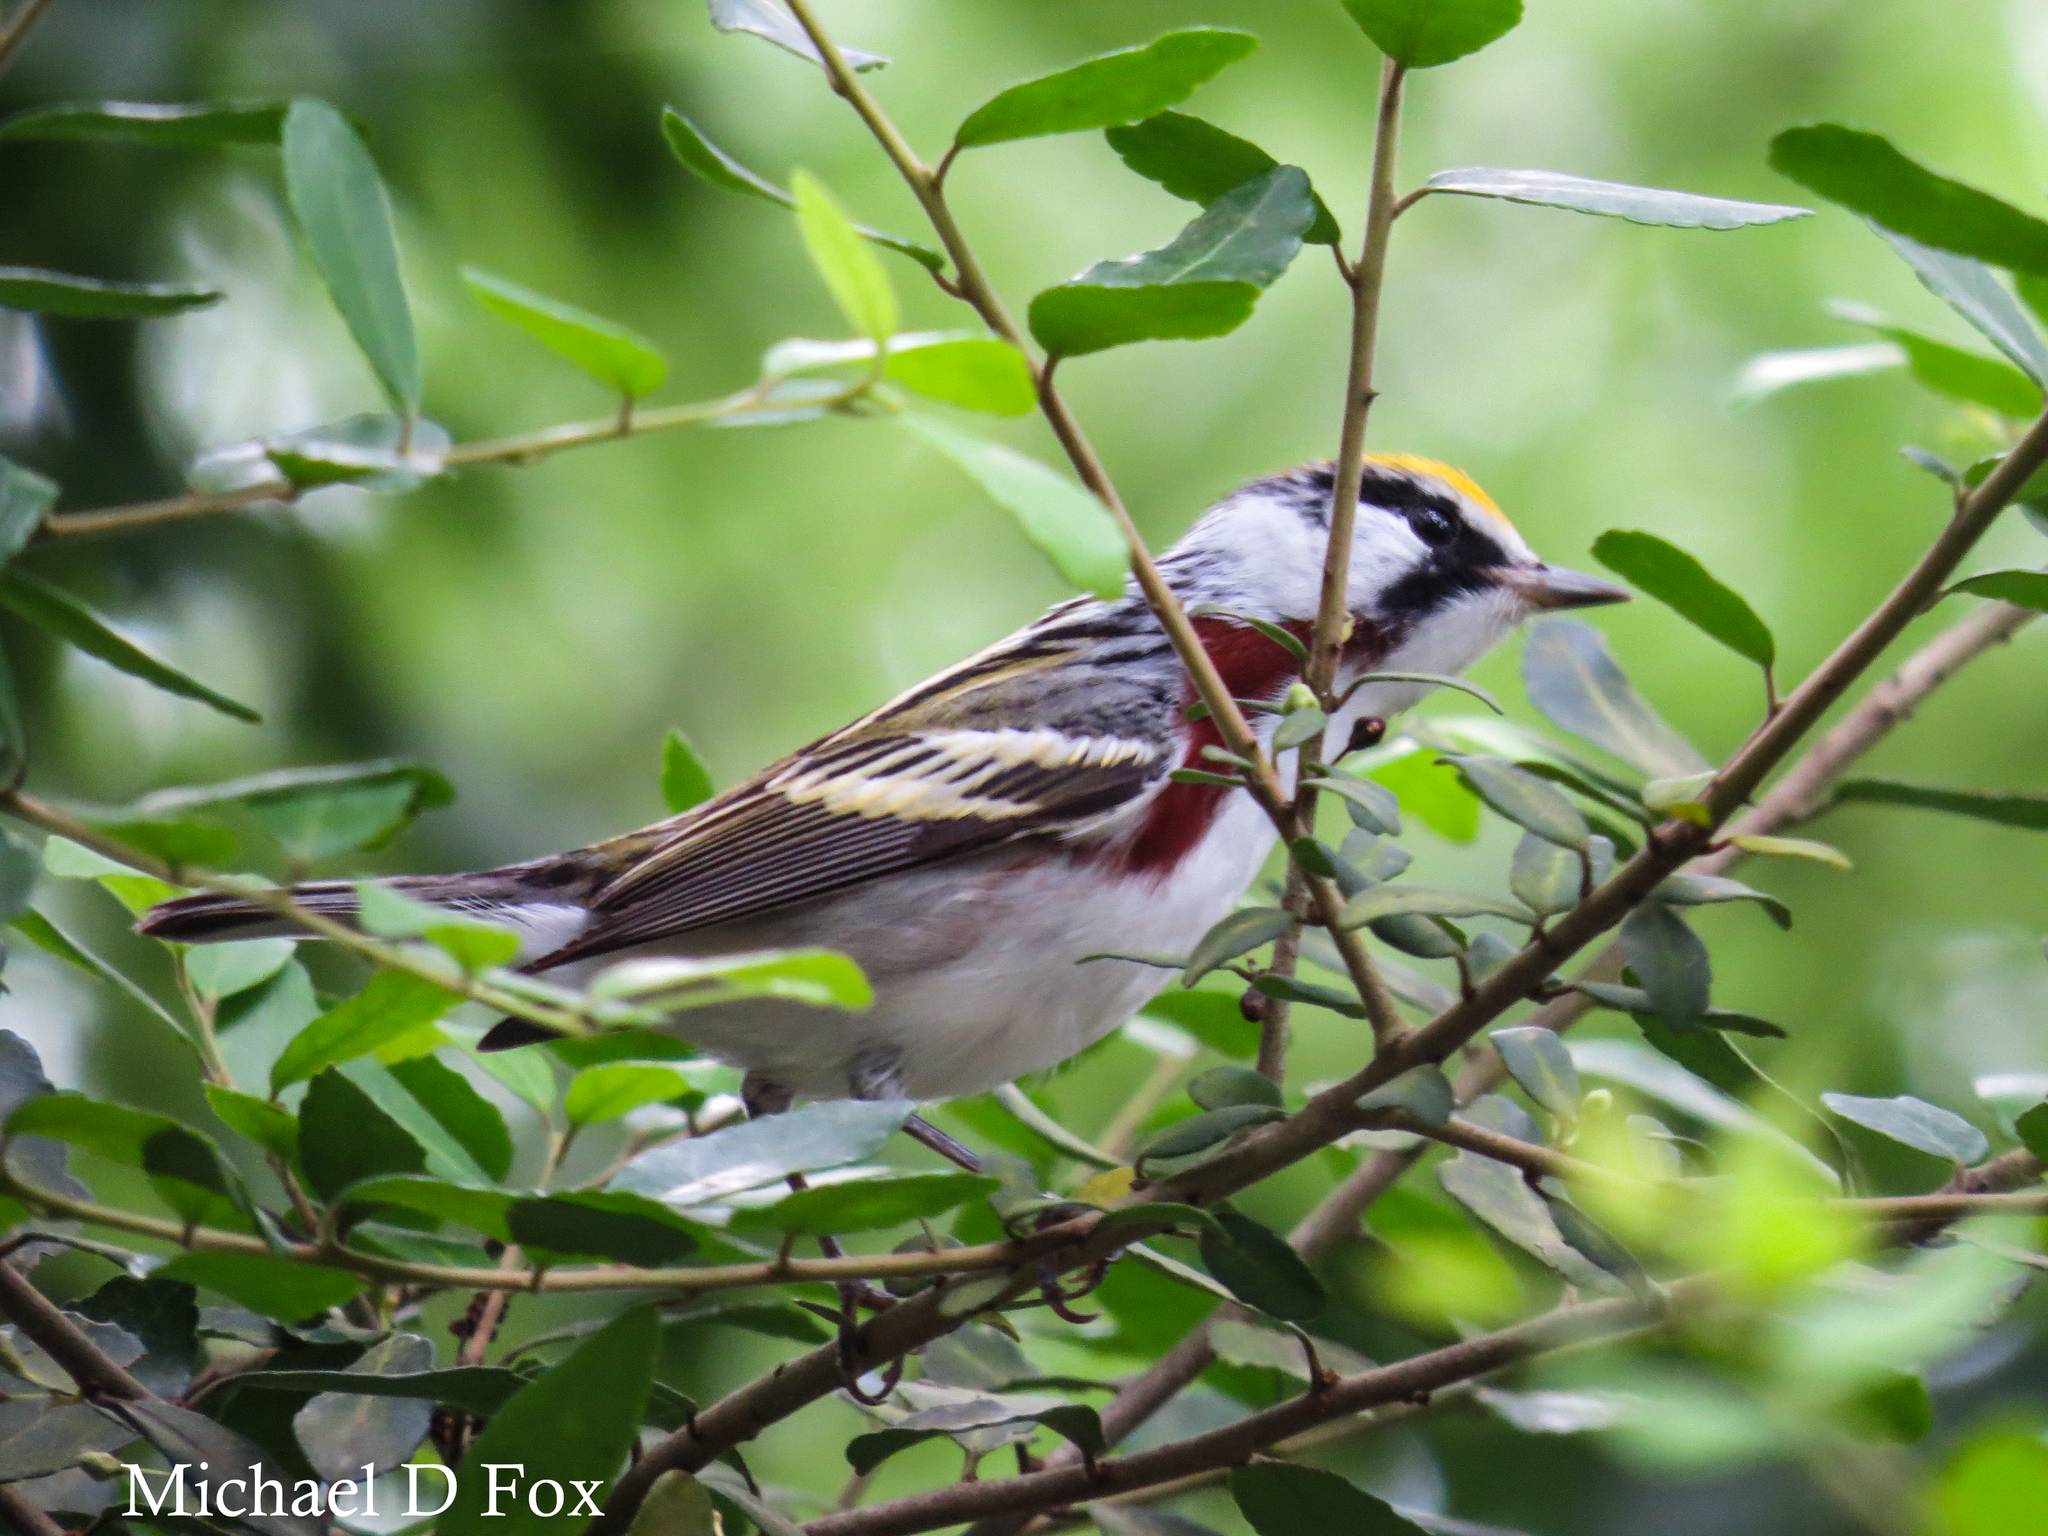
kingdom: Animalia
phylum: Chordata
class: Aves
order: Passeriformes
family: Parulidae
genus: Setophaga
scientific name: Setophaga pensylvanica
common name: Chestnut-sided warbler
